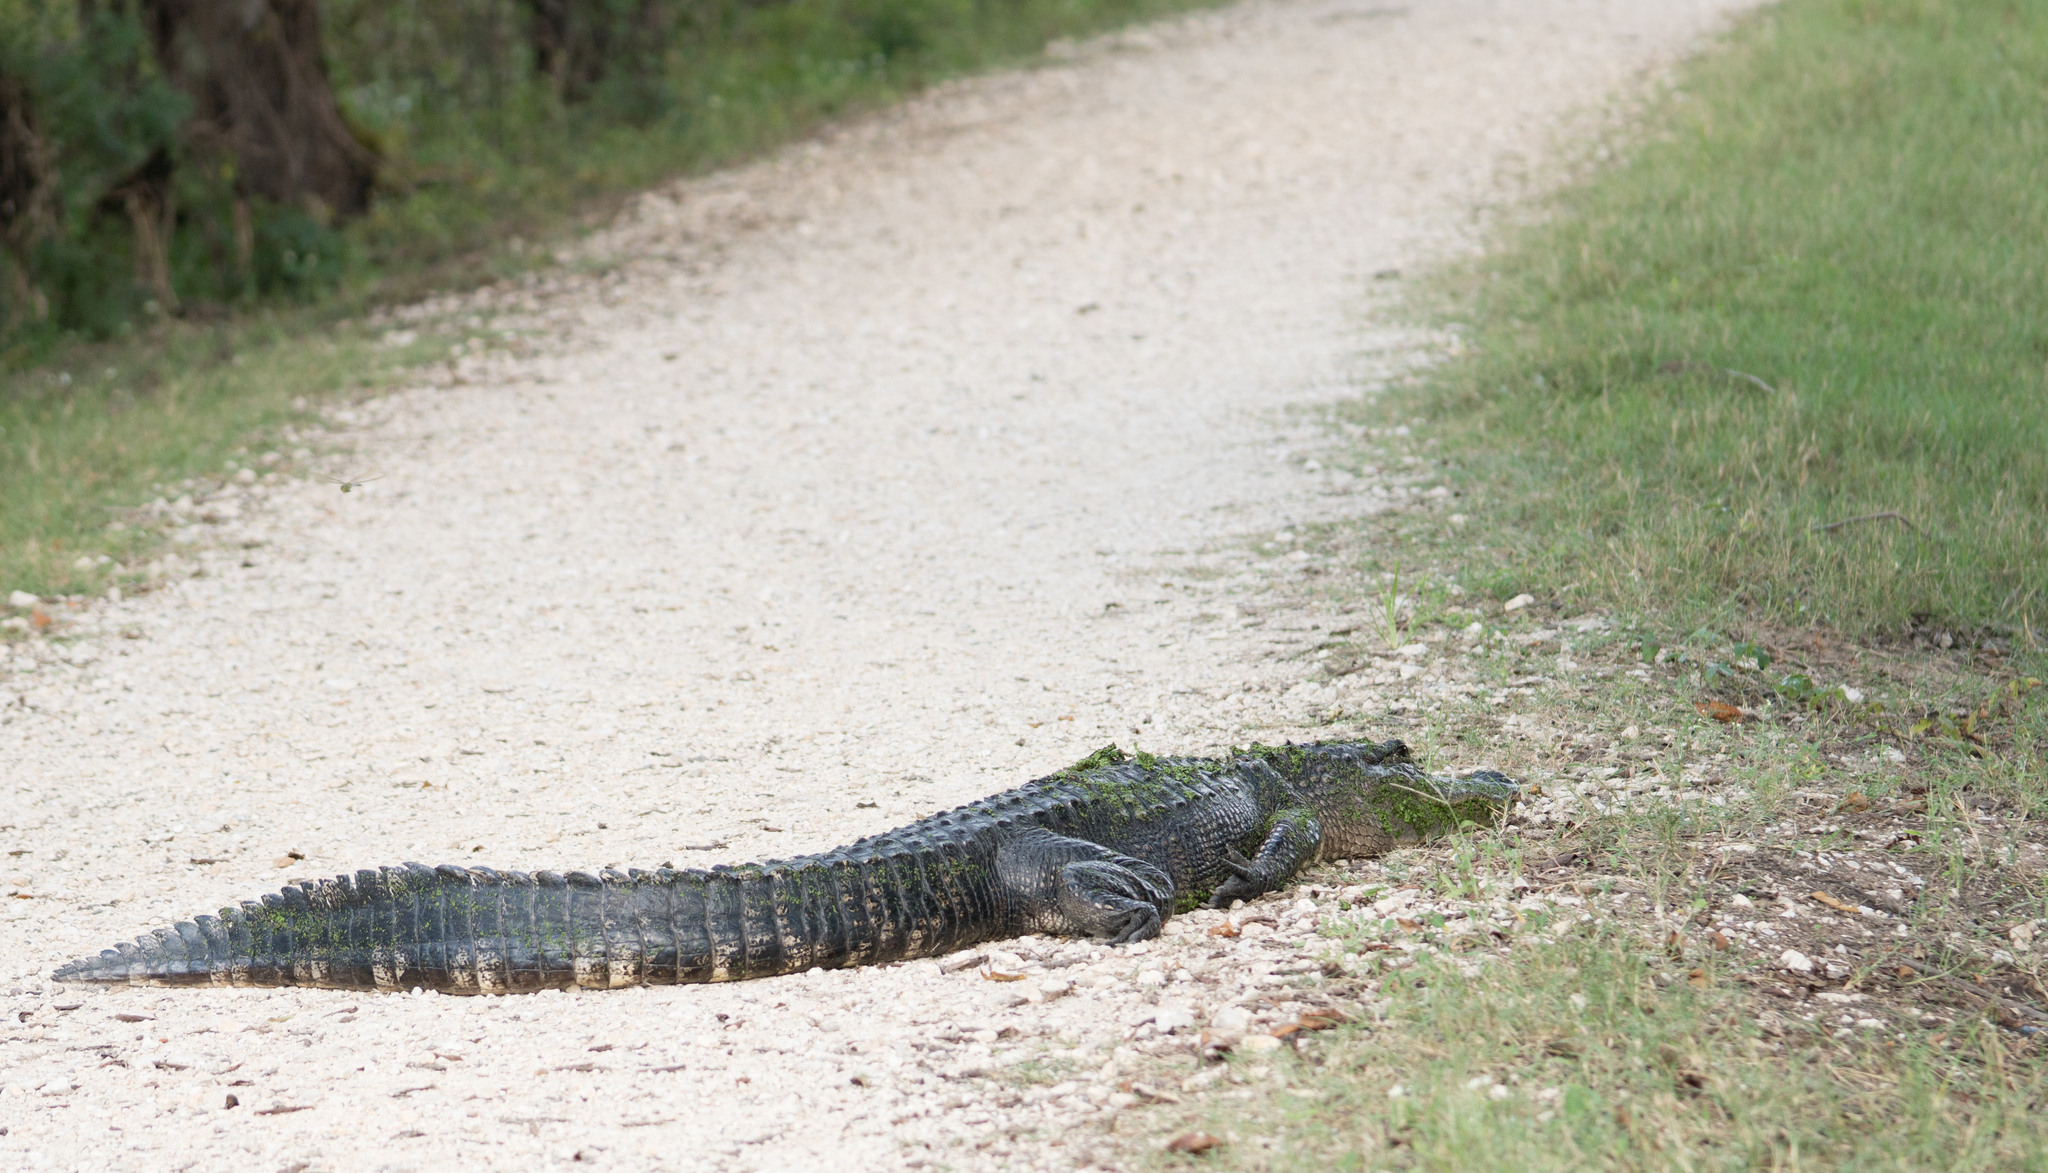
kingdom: Animalia
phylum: Chordata
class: Crocodylia
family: Alligatoridae
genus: Alligator
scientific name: Alligator mississippiensis
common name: American alligator
